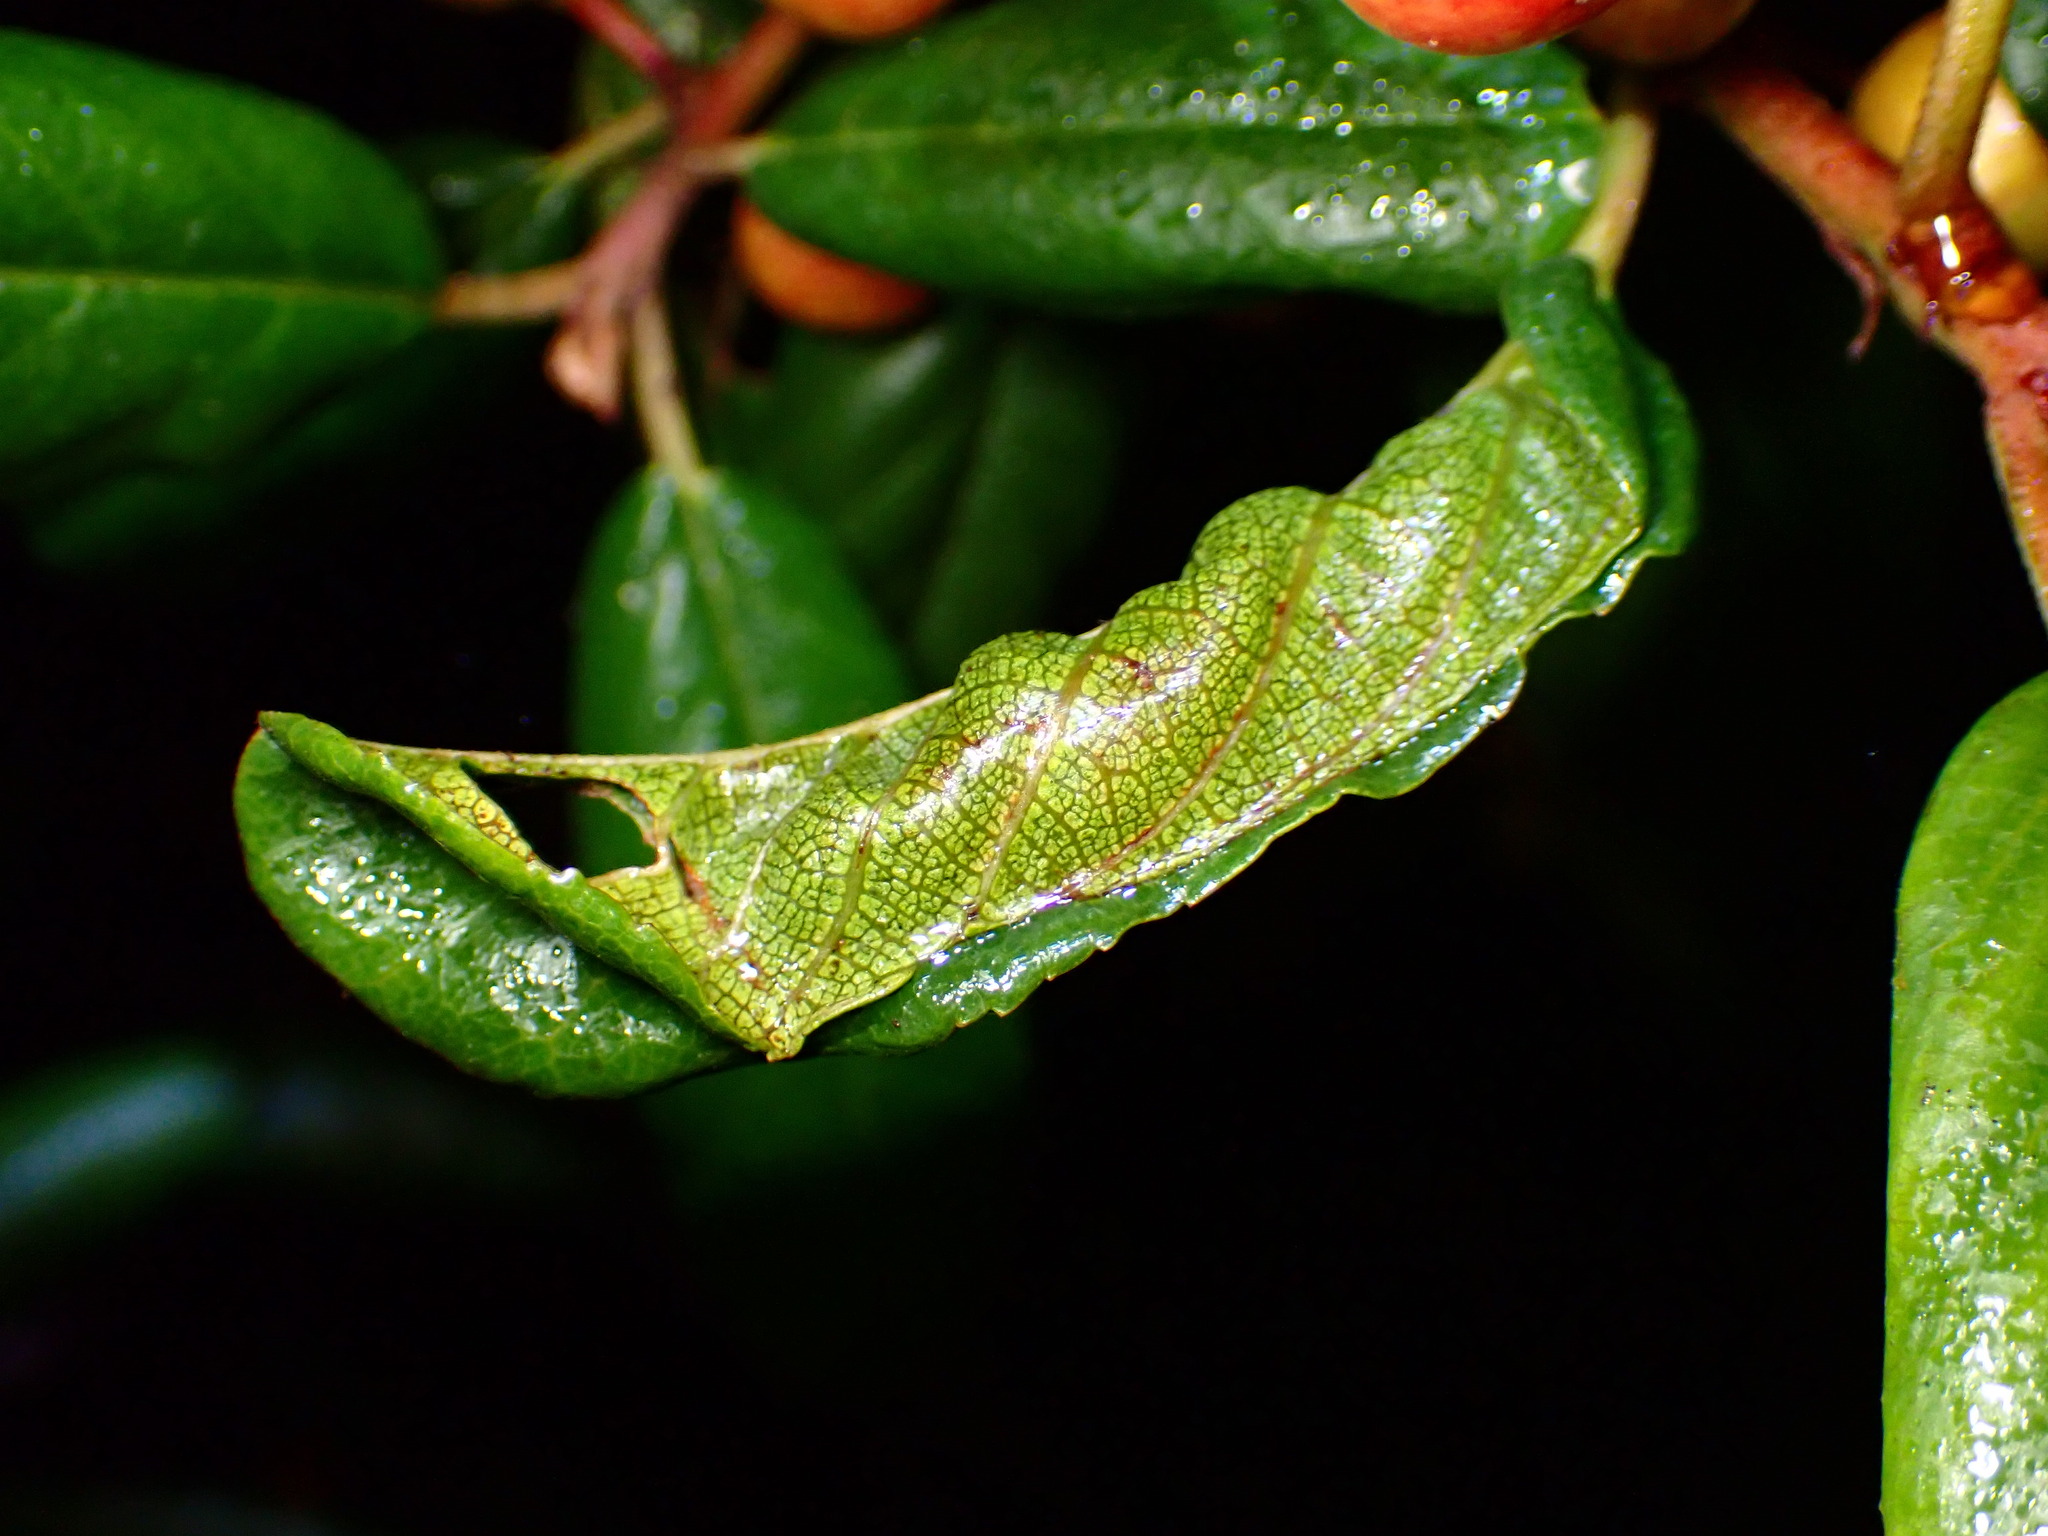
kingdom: Animalia
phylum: Arthropoda
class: Insecta
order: Lepidoptera
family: Cosmopterigidae
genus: Sorhagenia
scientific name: Sorhagenia nimbosus
